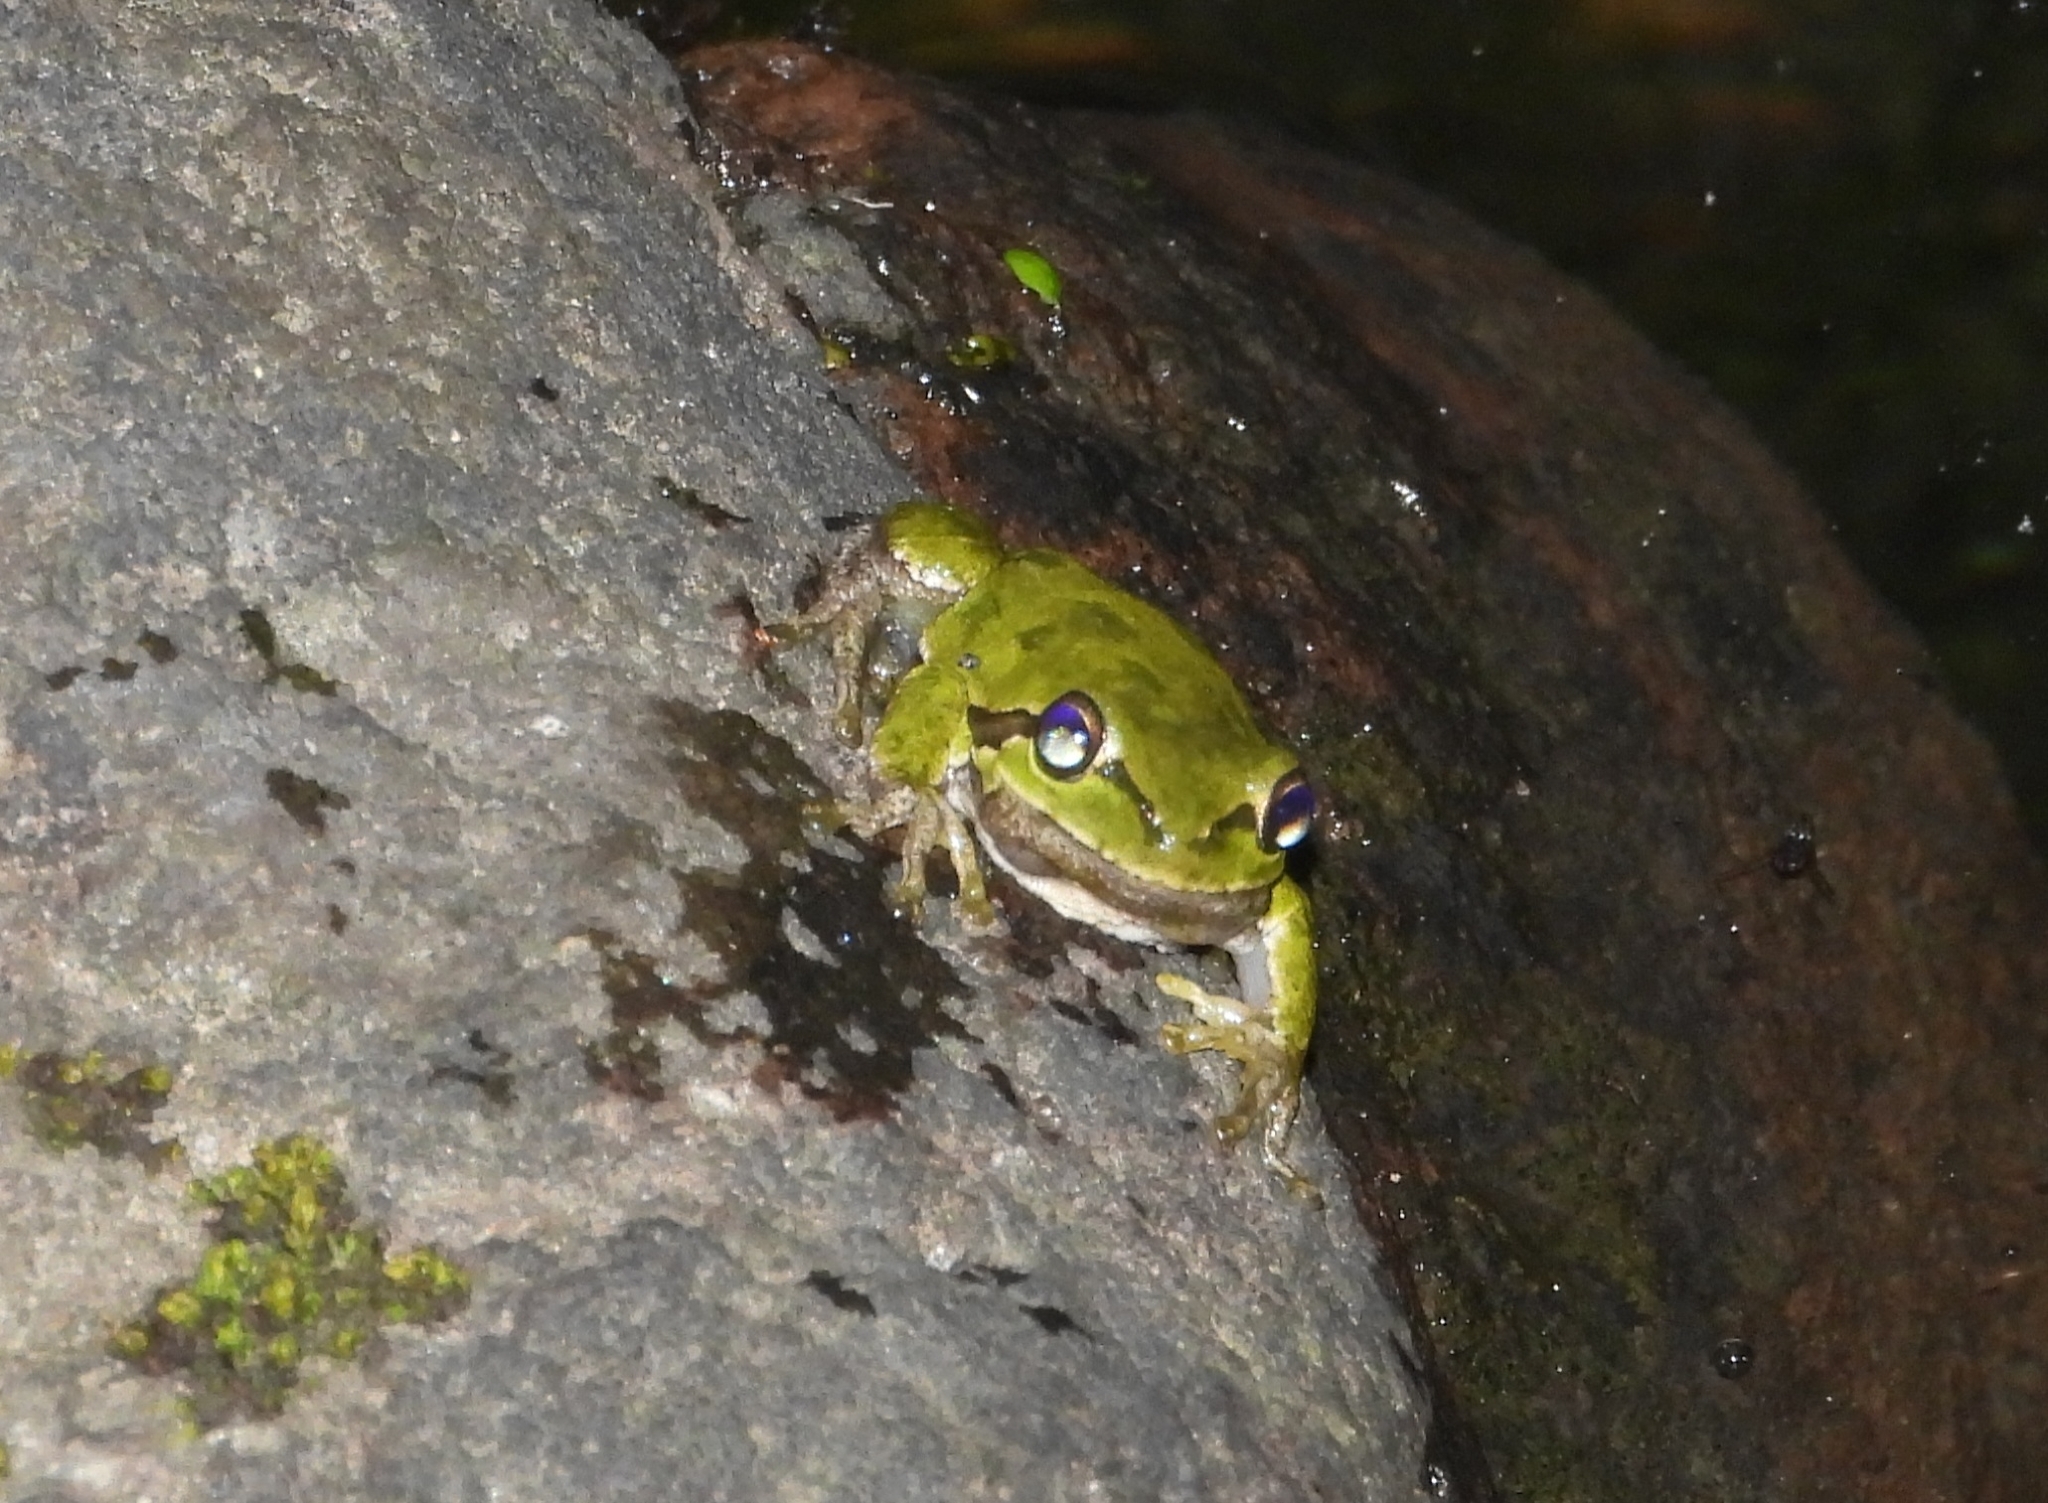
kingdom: Animalia
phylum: Chordata
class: Amphibia
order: Anura
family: Hylidae
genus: Hyla
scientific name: Hyla sarda
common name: Sardinian tree frog
